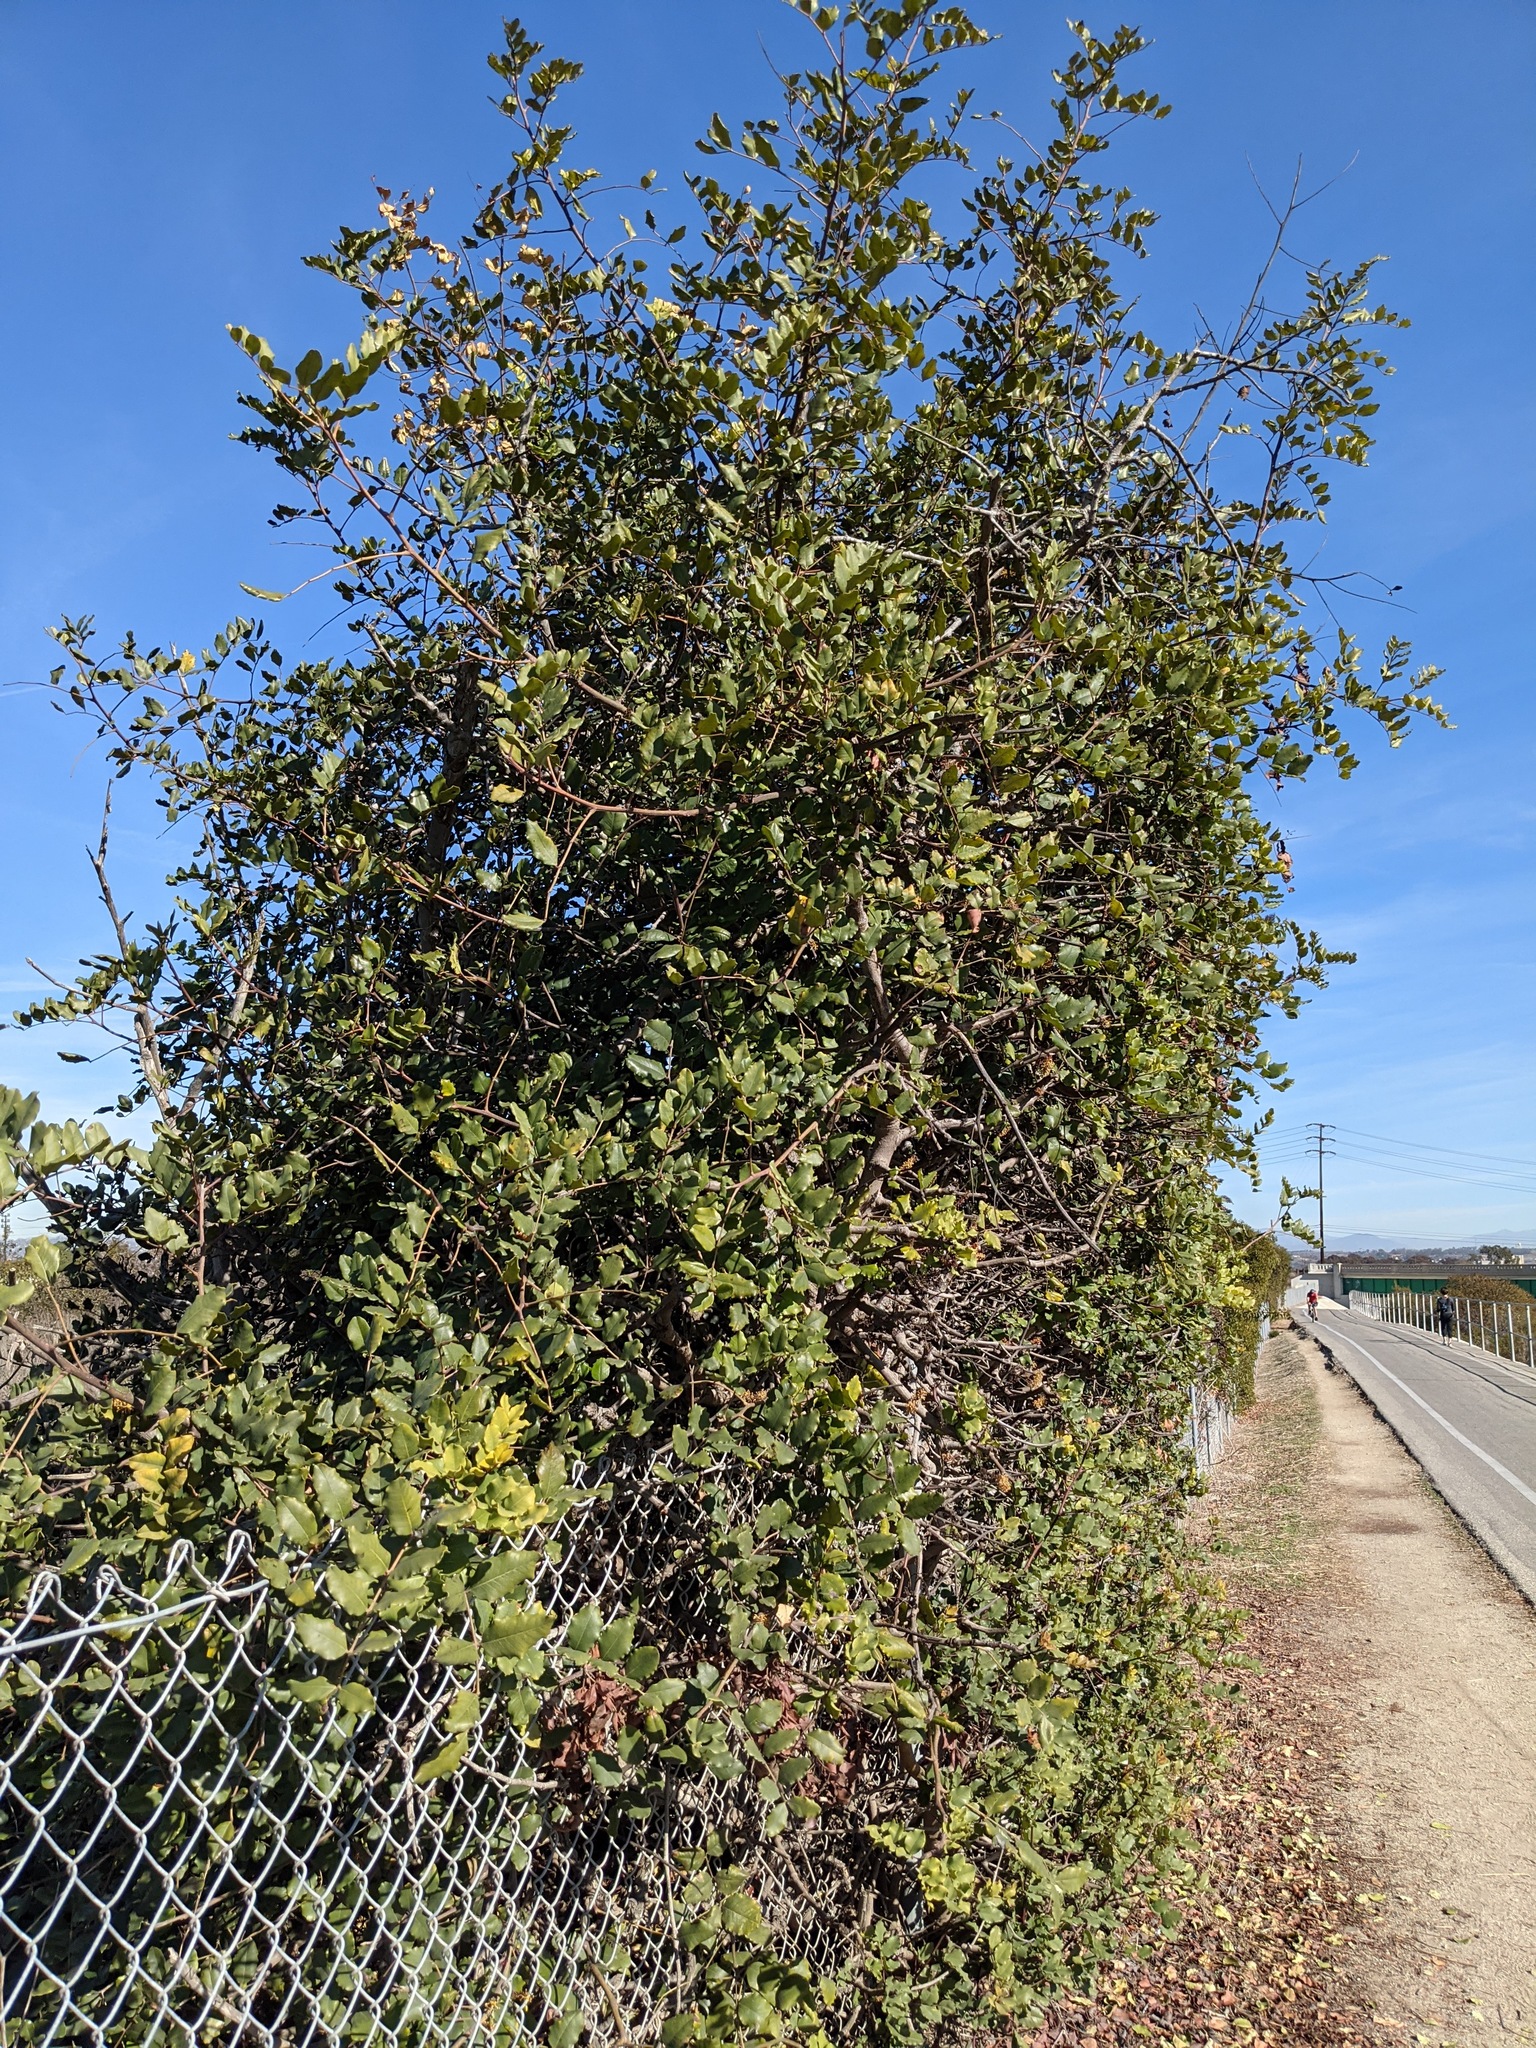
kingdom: Plantae
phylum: Tracheophyta
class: Magnoliopsida
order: Fabales
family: Fabaceae
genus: Ceratonia
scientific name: Ceratonia siliqua
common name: Carob
